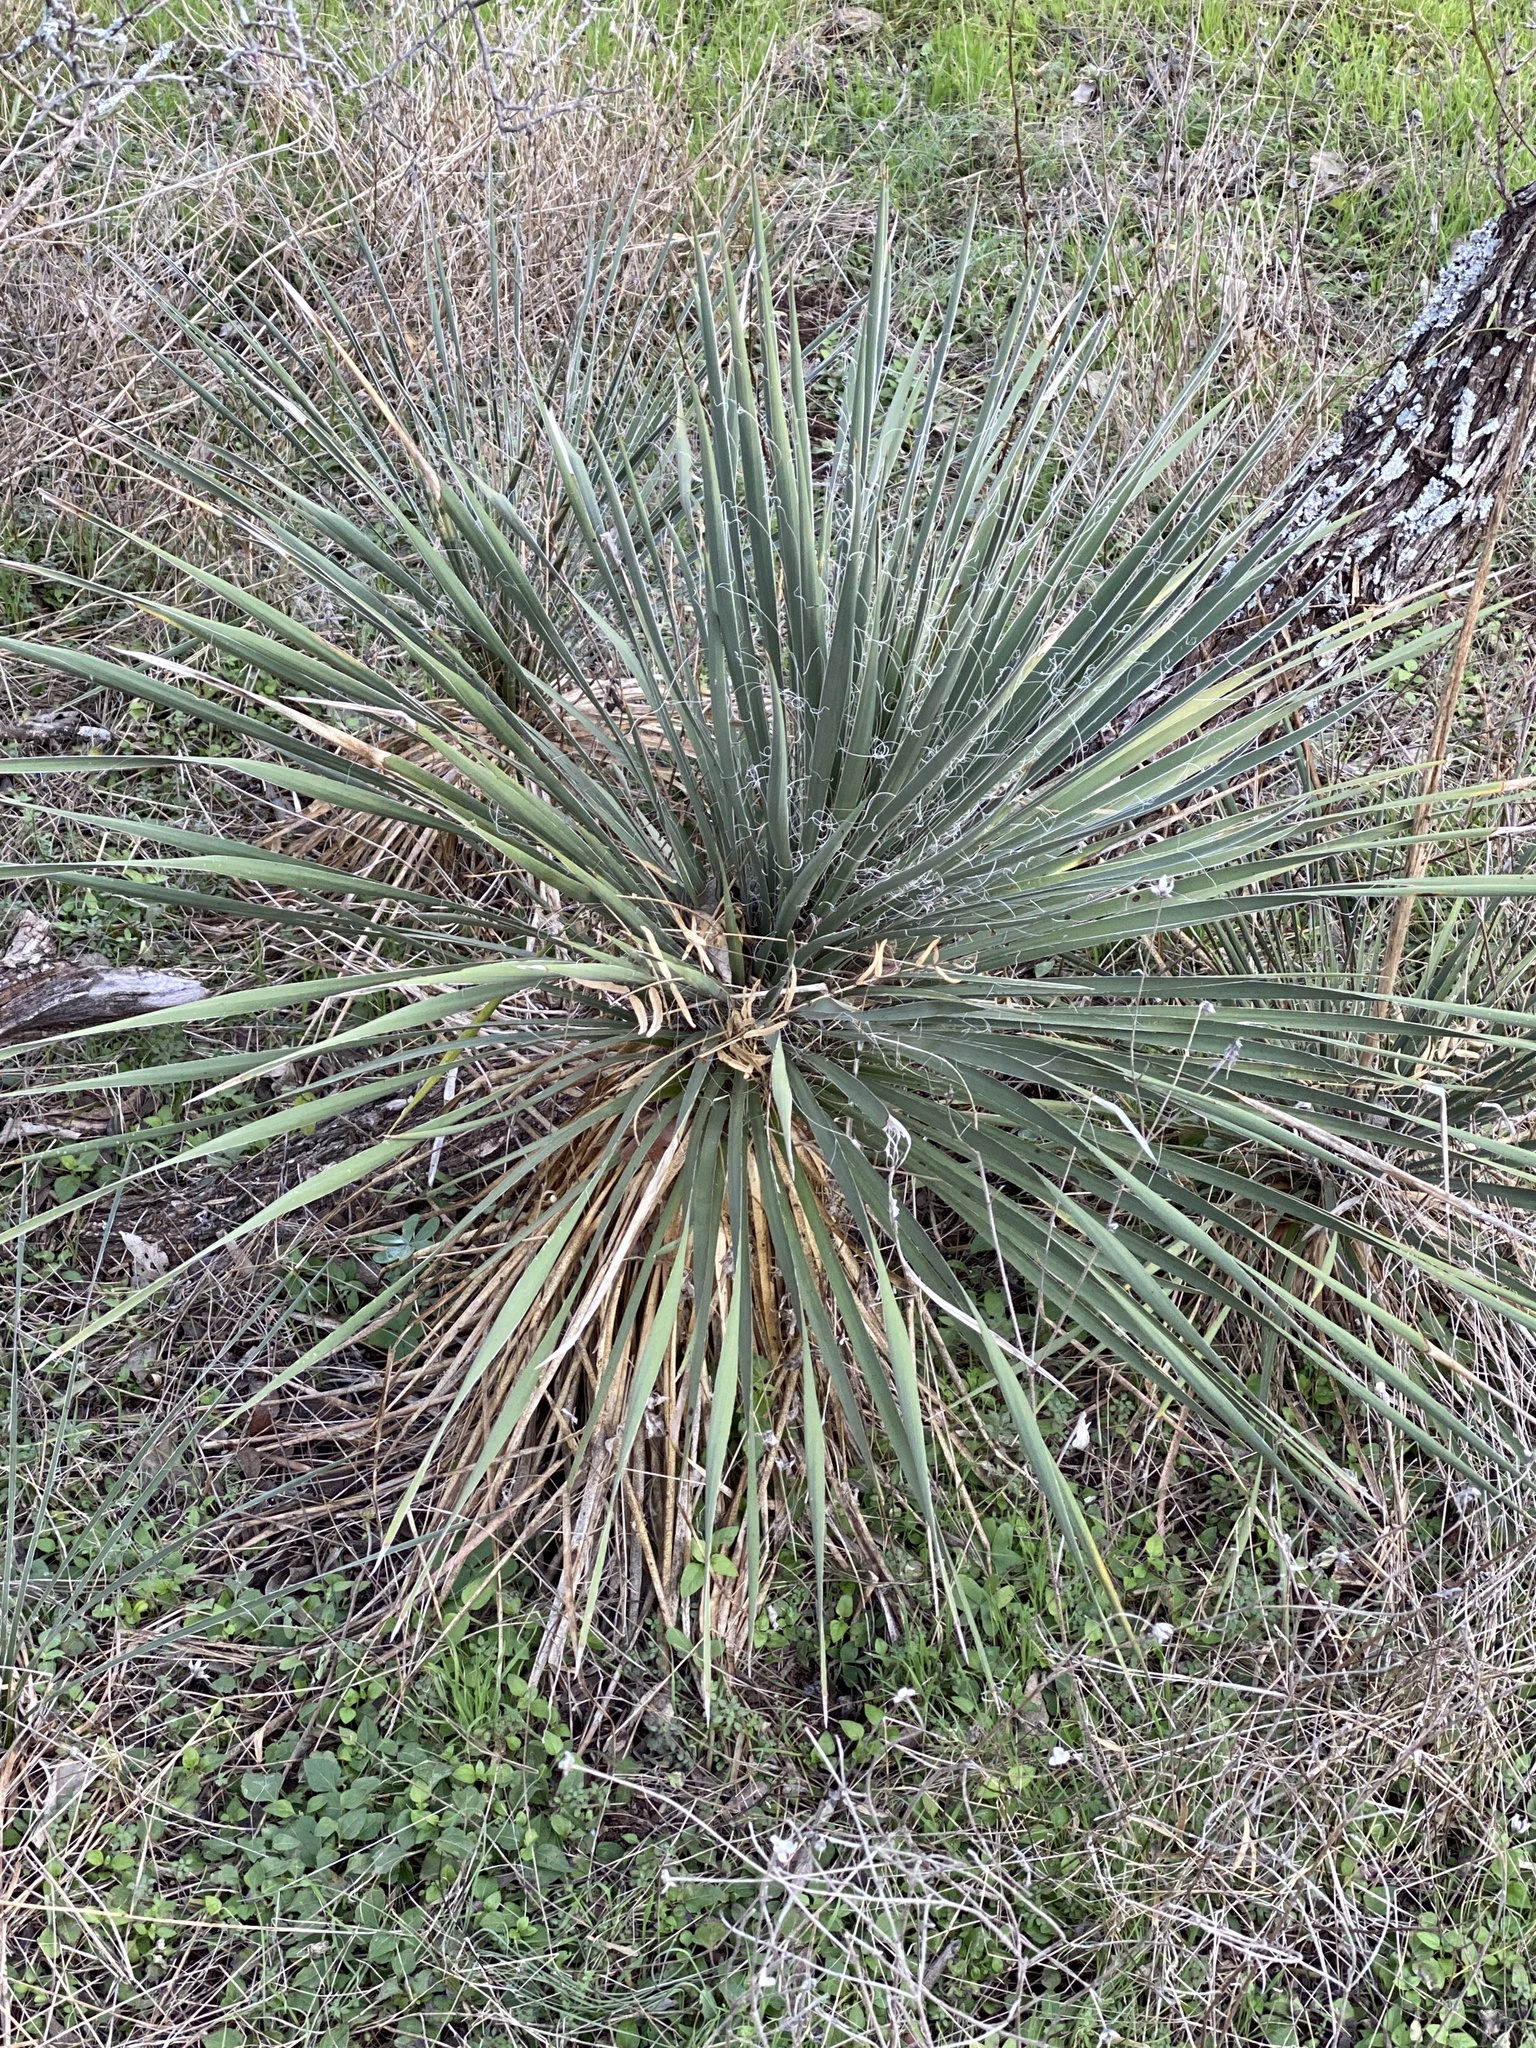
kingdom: Plantae
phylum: Tracheophyta
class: Liliopsida
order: Asparagales
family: Asparagaceae
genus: Yucca
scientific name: Yucca constricta
